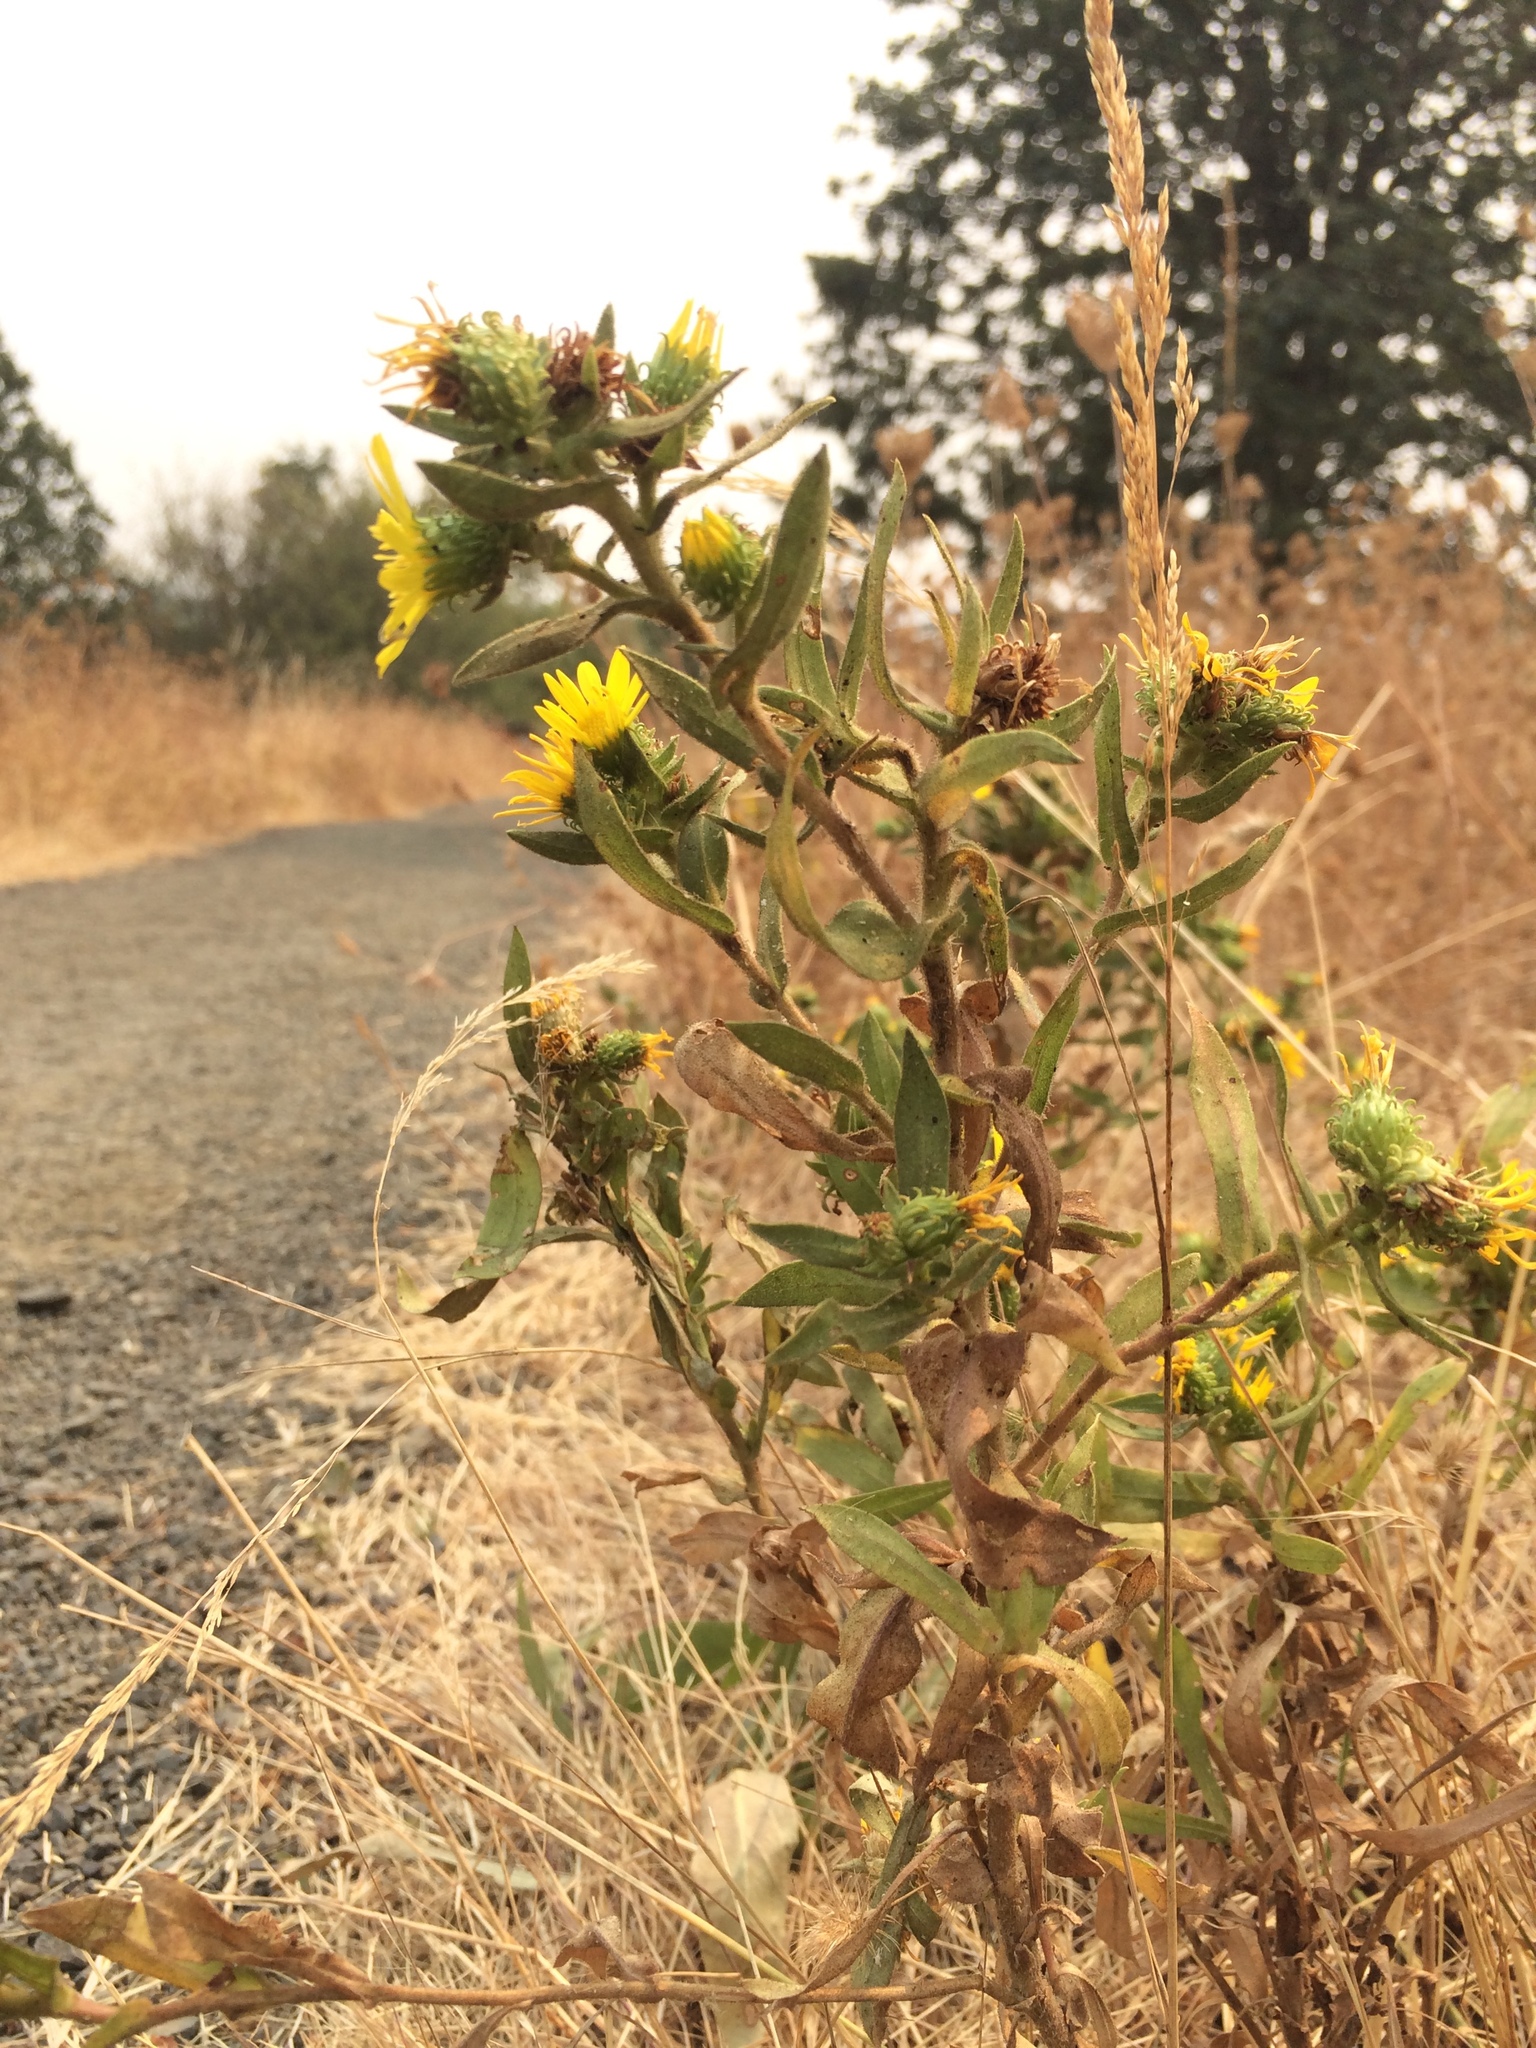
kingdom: Plantae
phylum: Tracheophyta
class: Magnoliopsida
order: Asterales
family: Asteraceae
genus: Grindelia
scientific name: Grindelia integrifolia
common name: Puget sound gumweed
